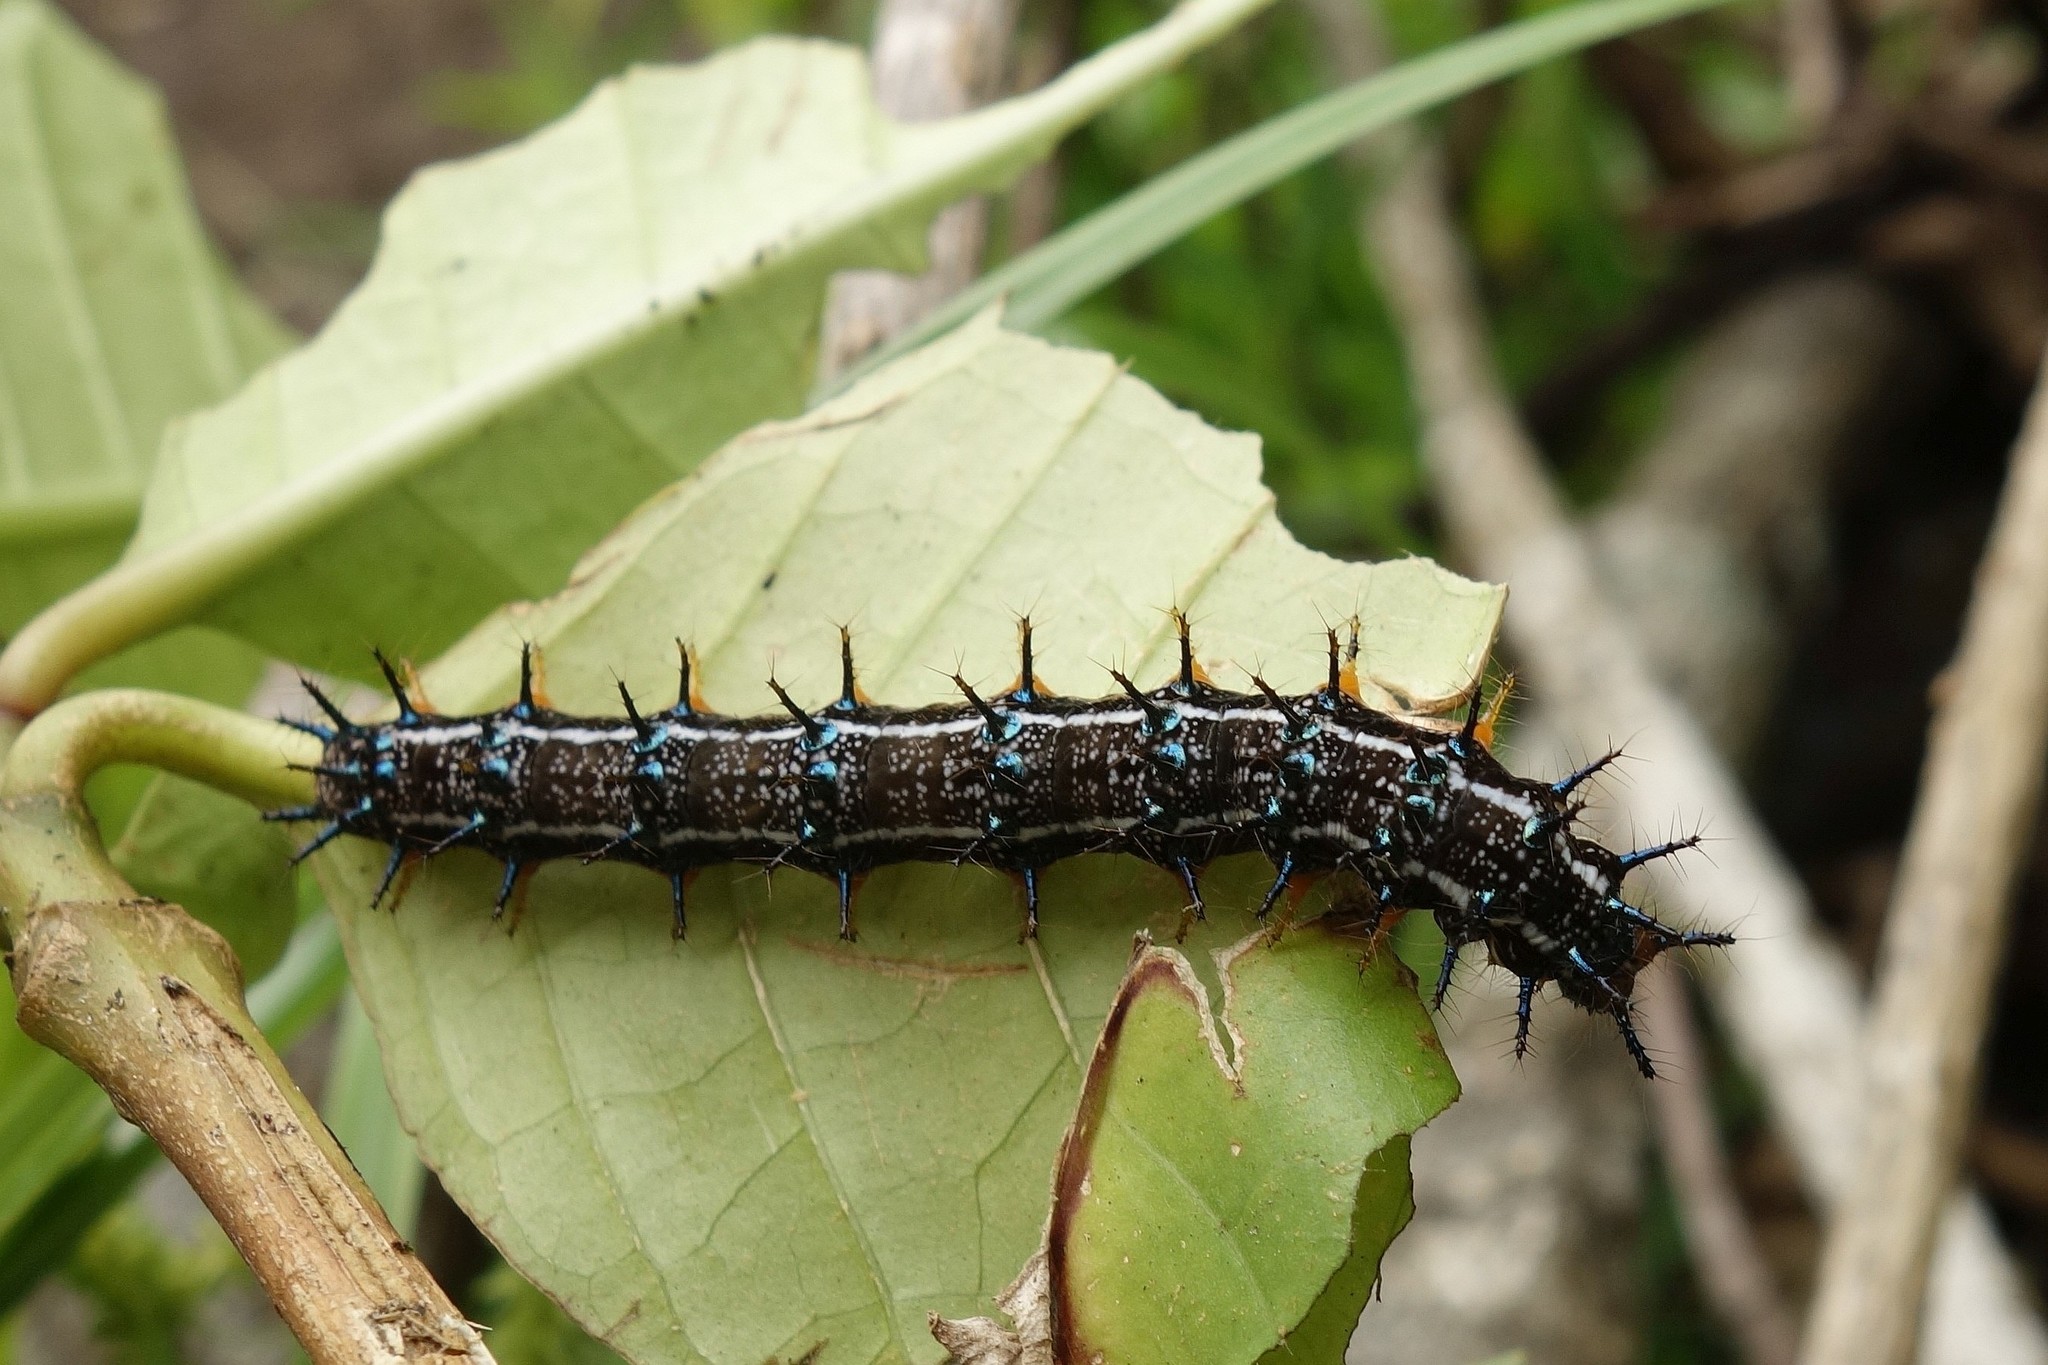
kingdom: Animalia
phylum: Arthropoda
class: Insecta
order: Lepidoptera
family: Nymphalidae
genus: Doleschallia
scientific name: Doleschallia browni
